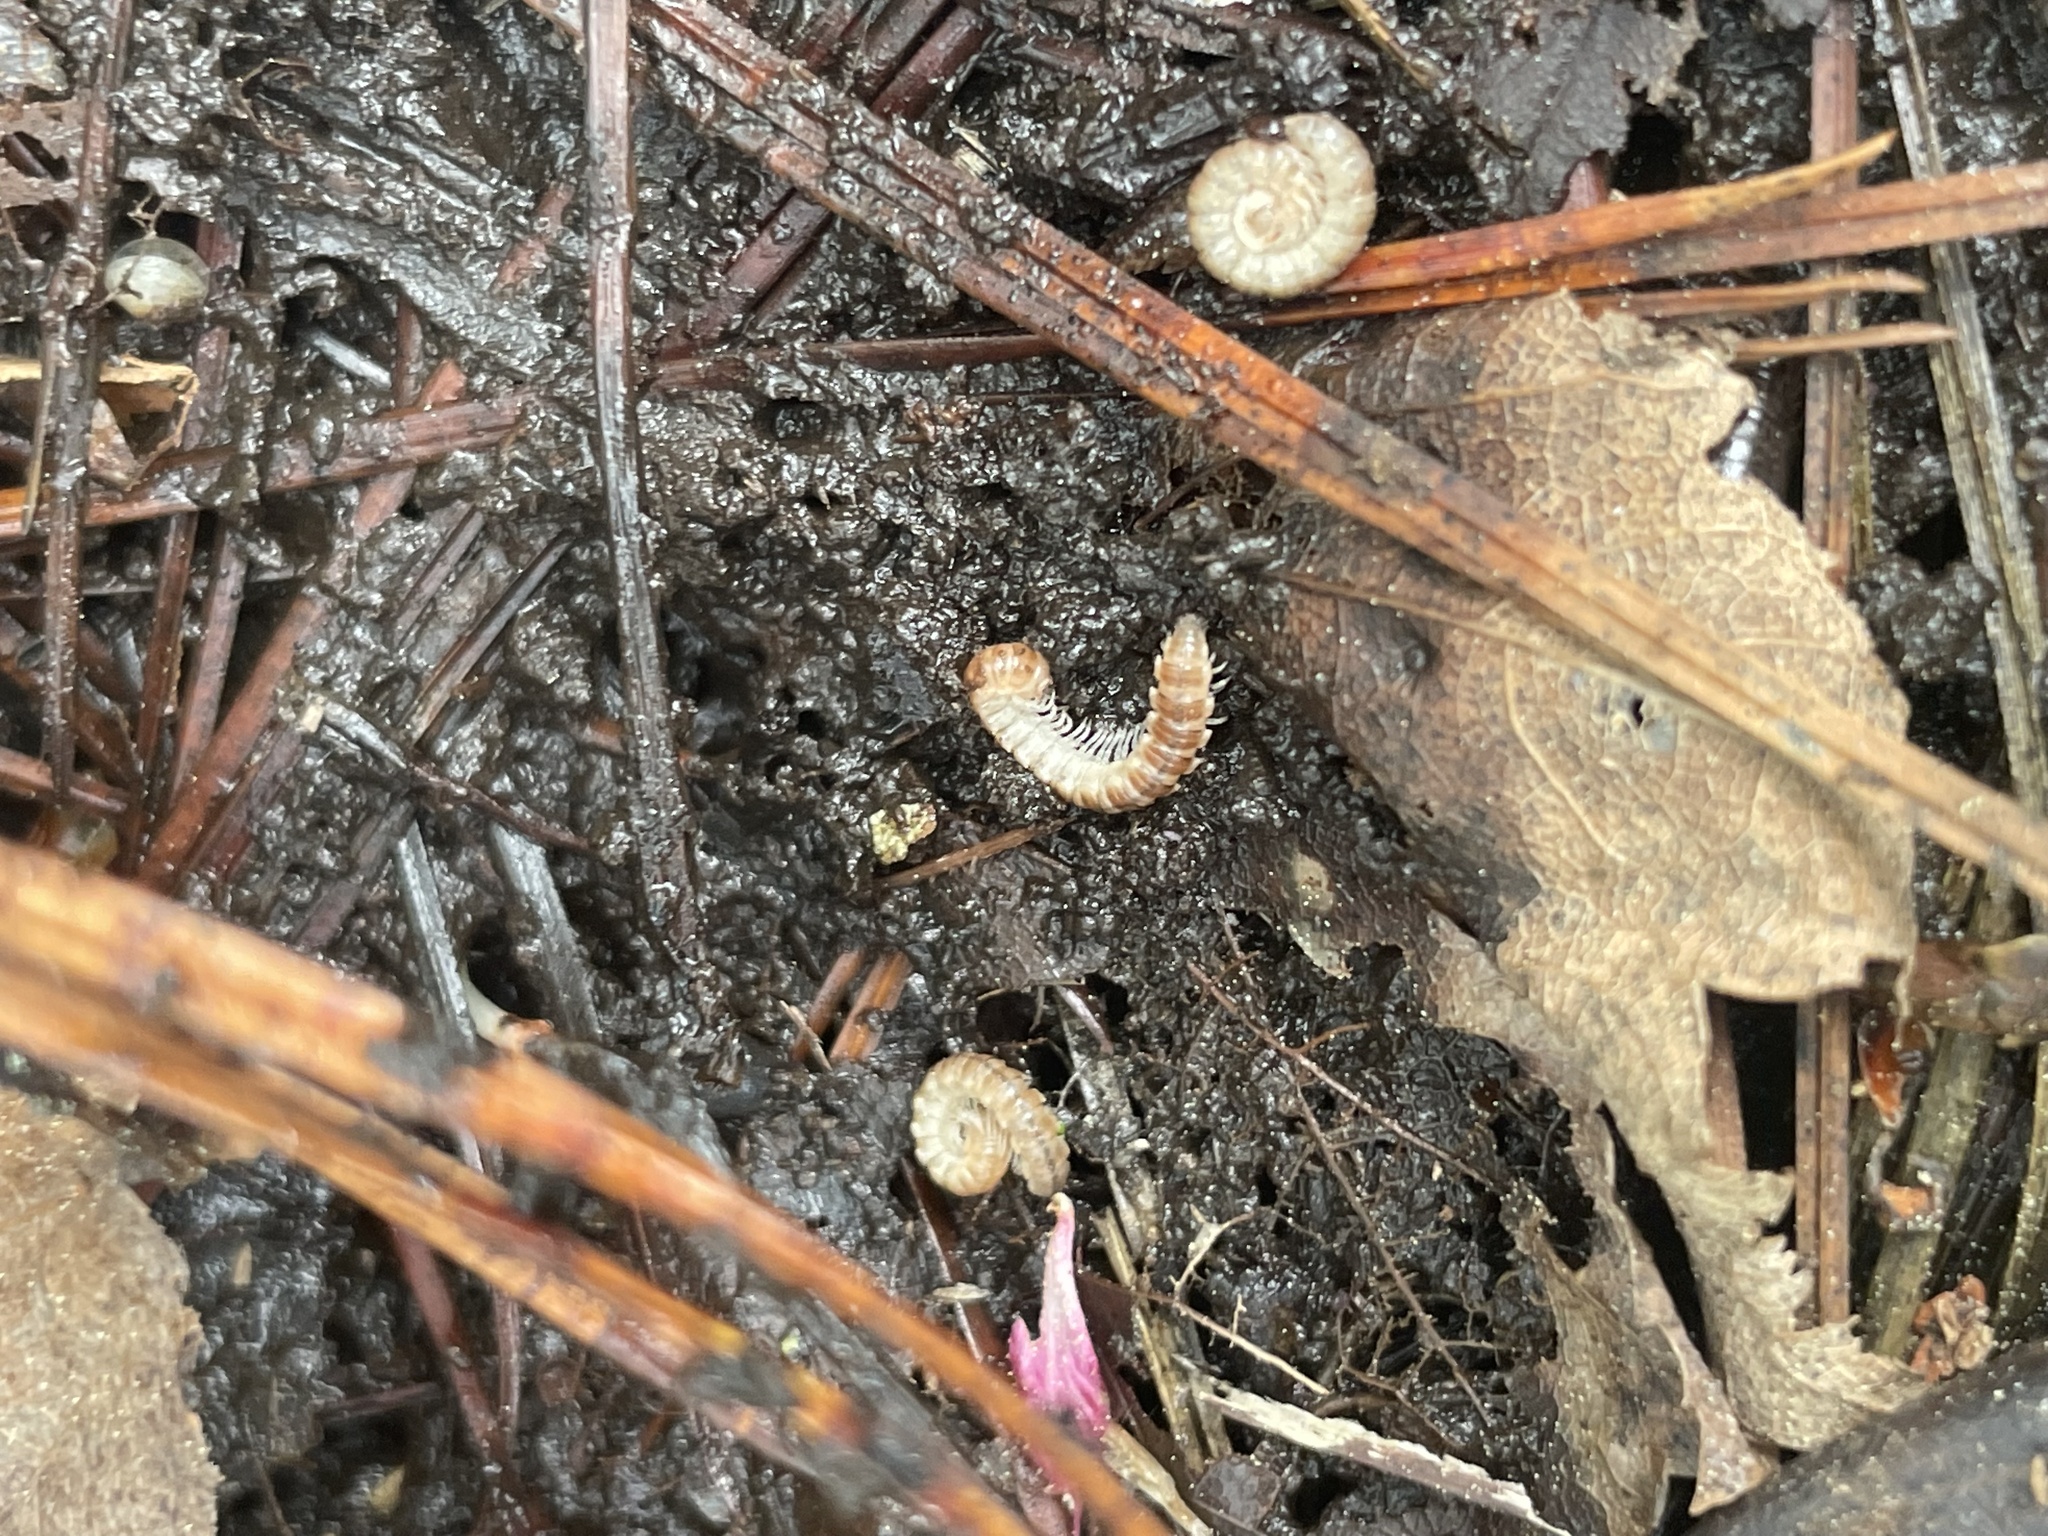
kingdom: Animalia
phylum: Arthropoda
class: Diplopoda
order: Polydesmida
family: Paradoxosomatidae
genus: Oxidus
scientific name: Oxidus gracilis
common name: Greenhouse millipede
